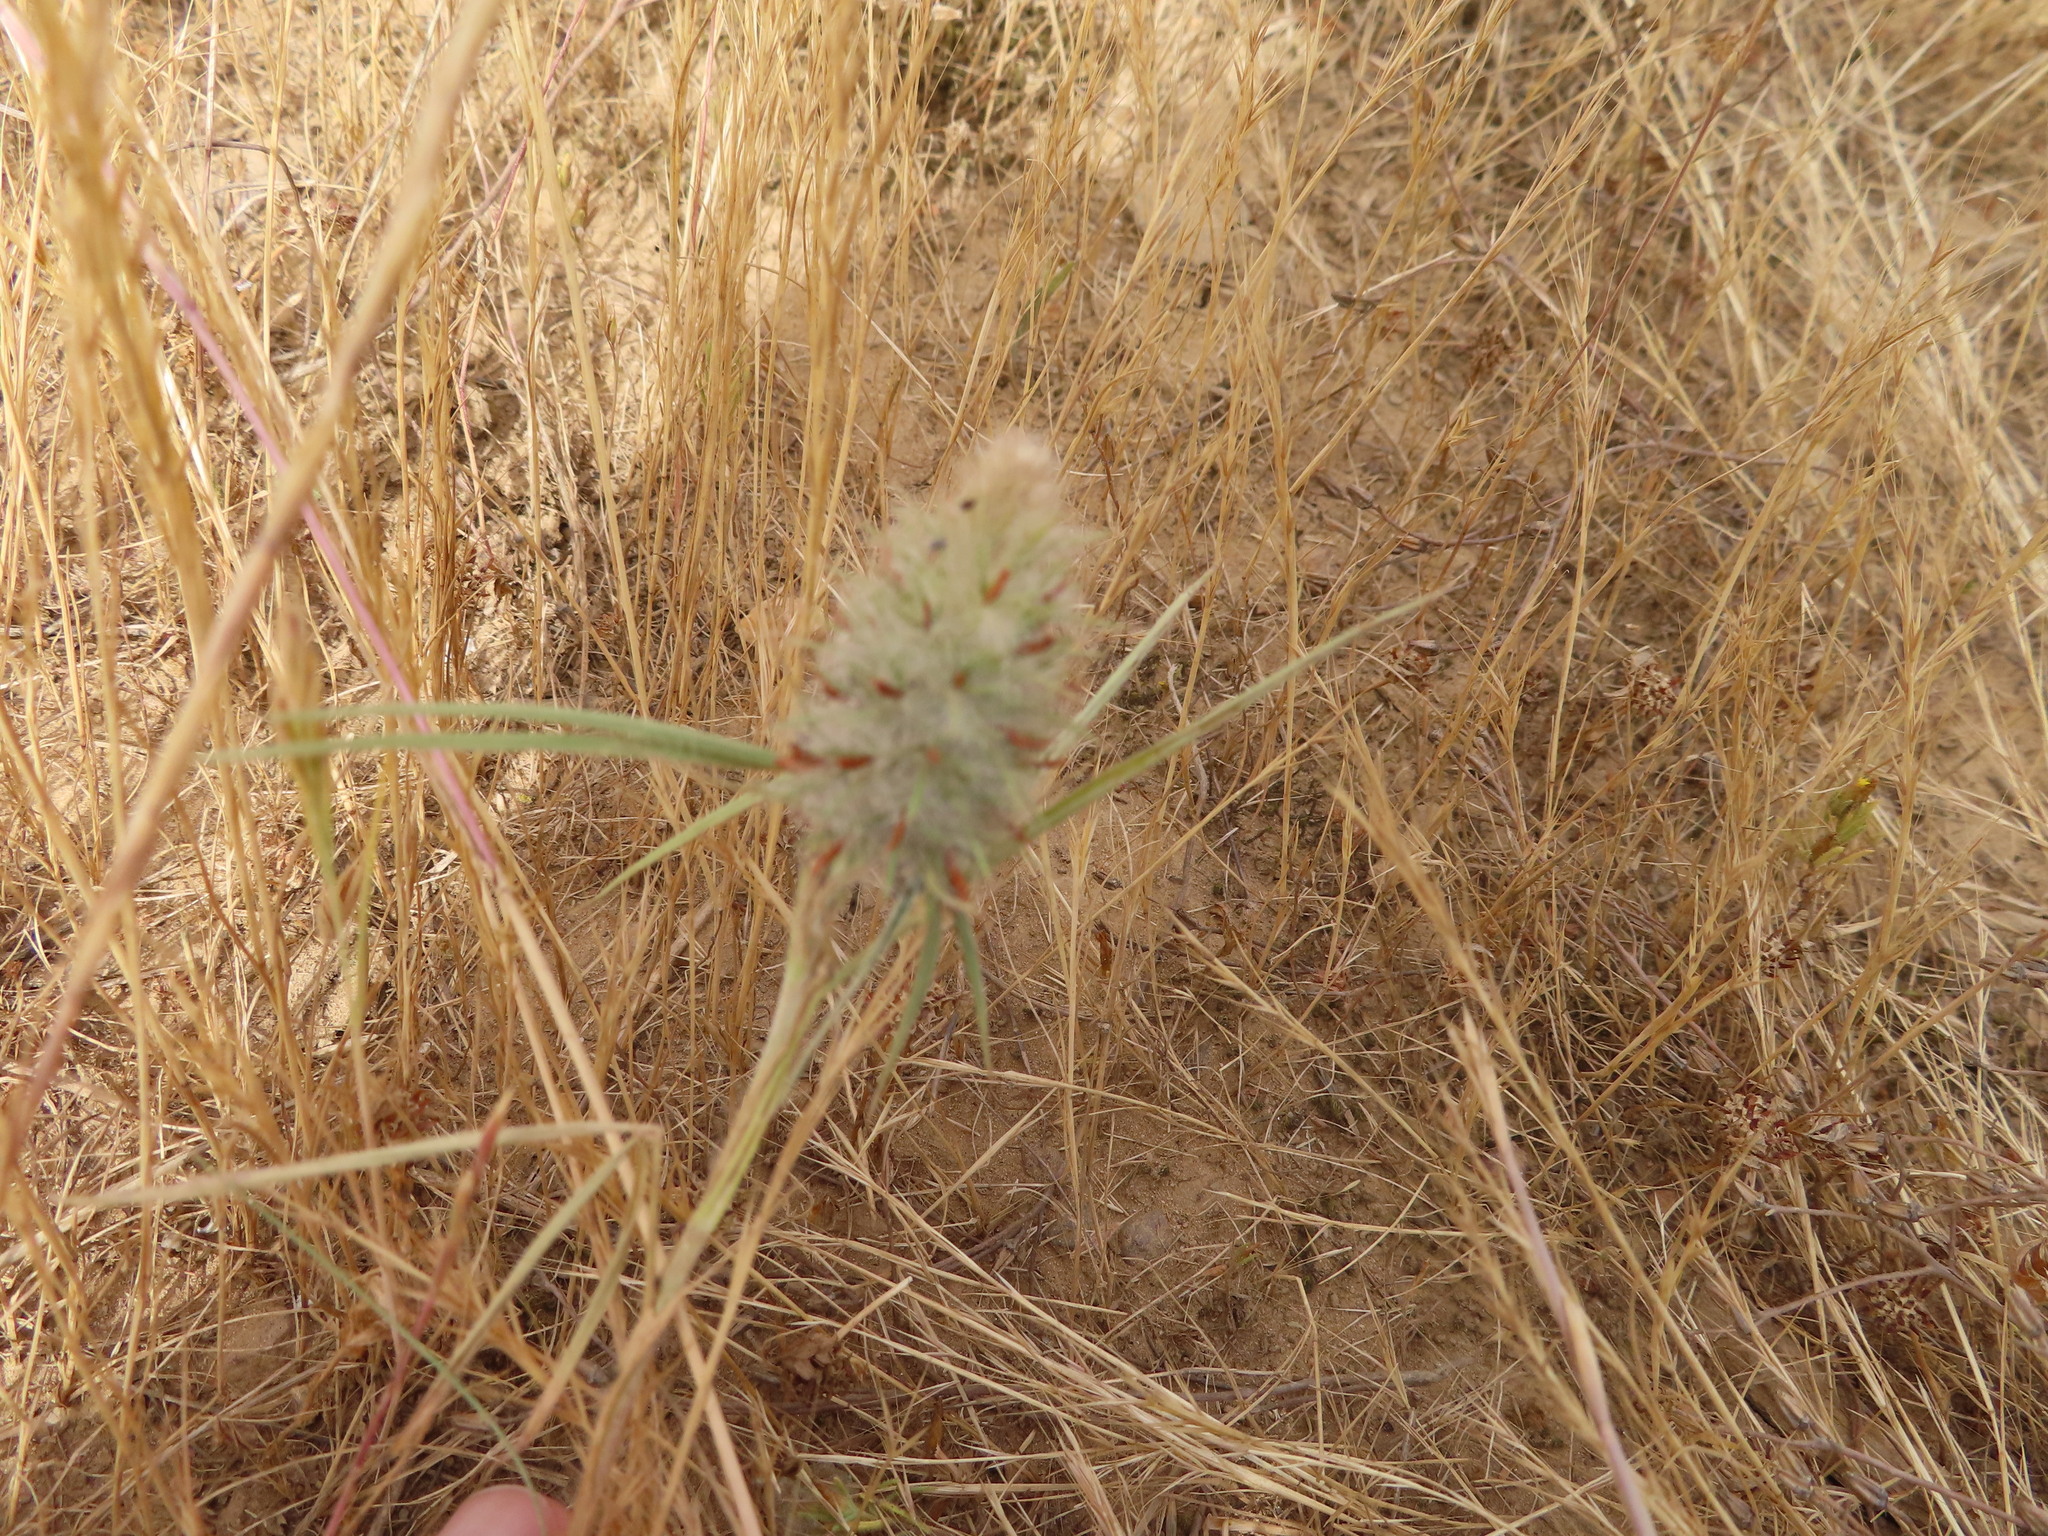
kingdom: Plantae
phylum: Tracheophyta
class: Magnoliopsida
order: Fabales
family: Fabaceae
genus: Trifolium
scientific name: Trifolium angustifolium
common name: Narrow clover
